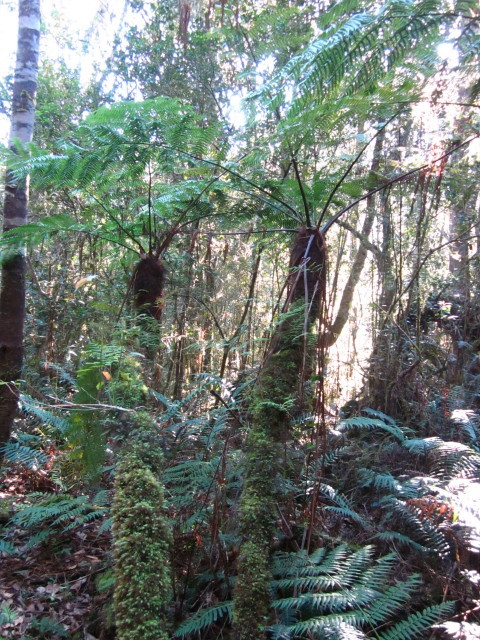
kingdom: Plantae
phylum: Tracheophyta
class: Polypodiopsida
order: Cyatheales
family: Cyatheaceae
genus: Gymnosphaera
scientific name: Gymnosphaera capensis
